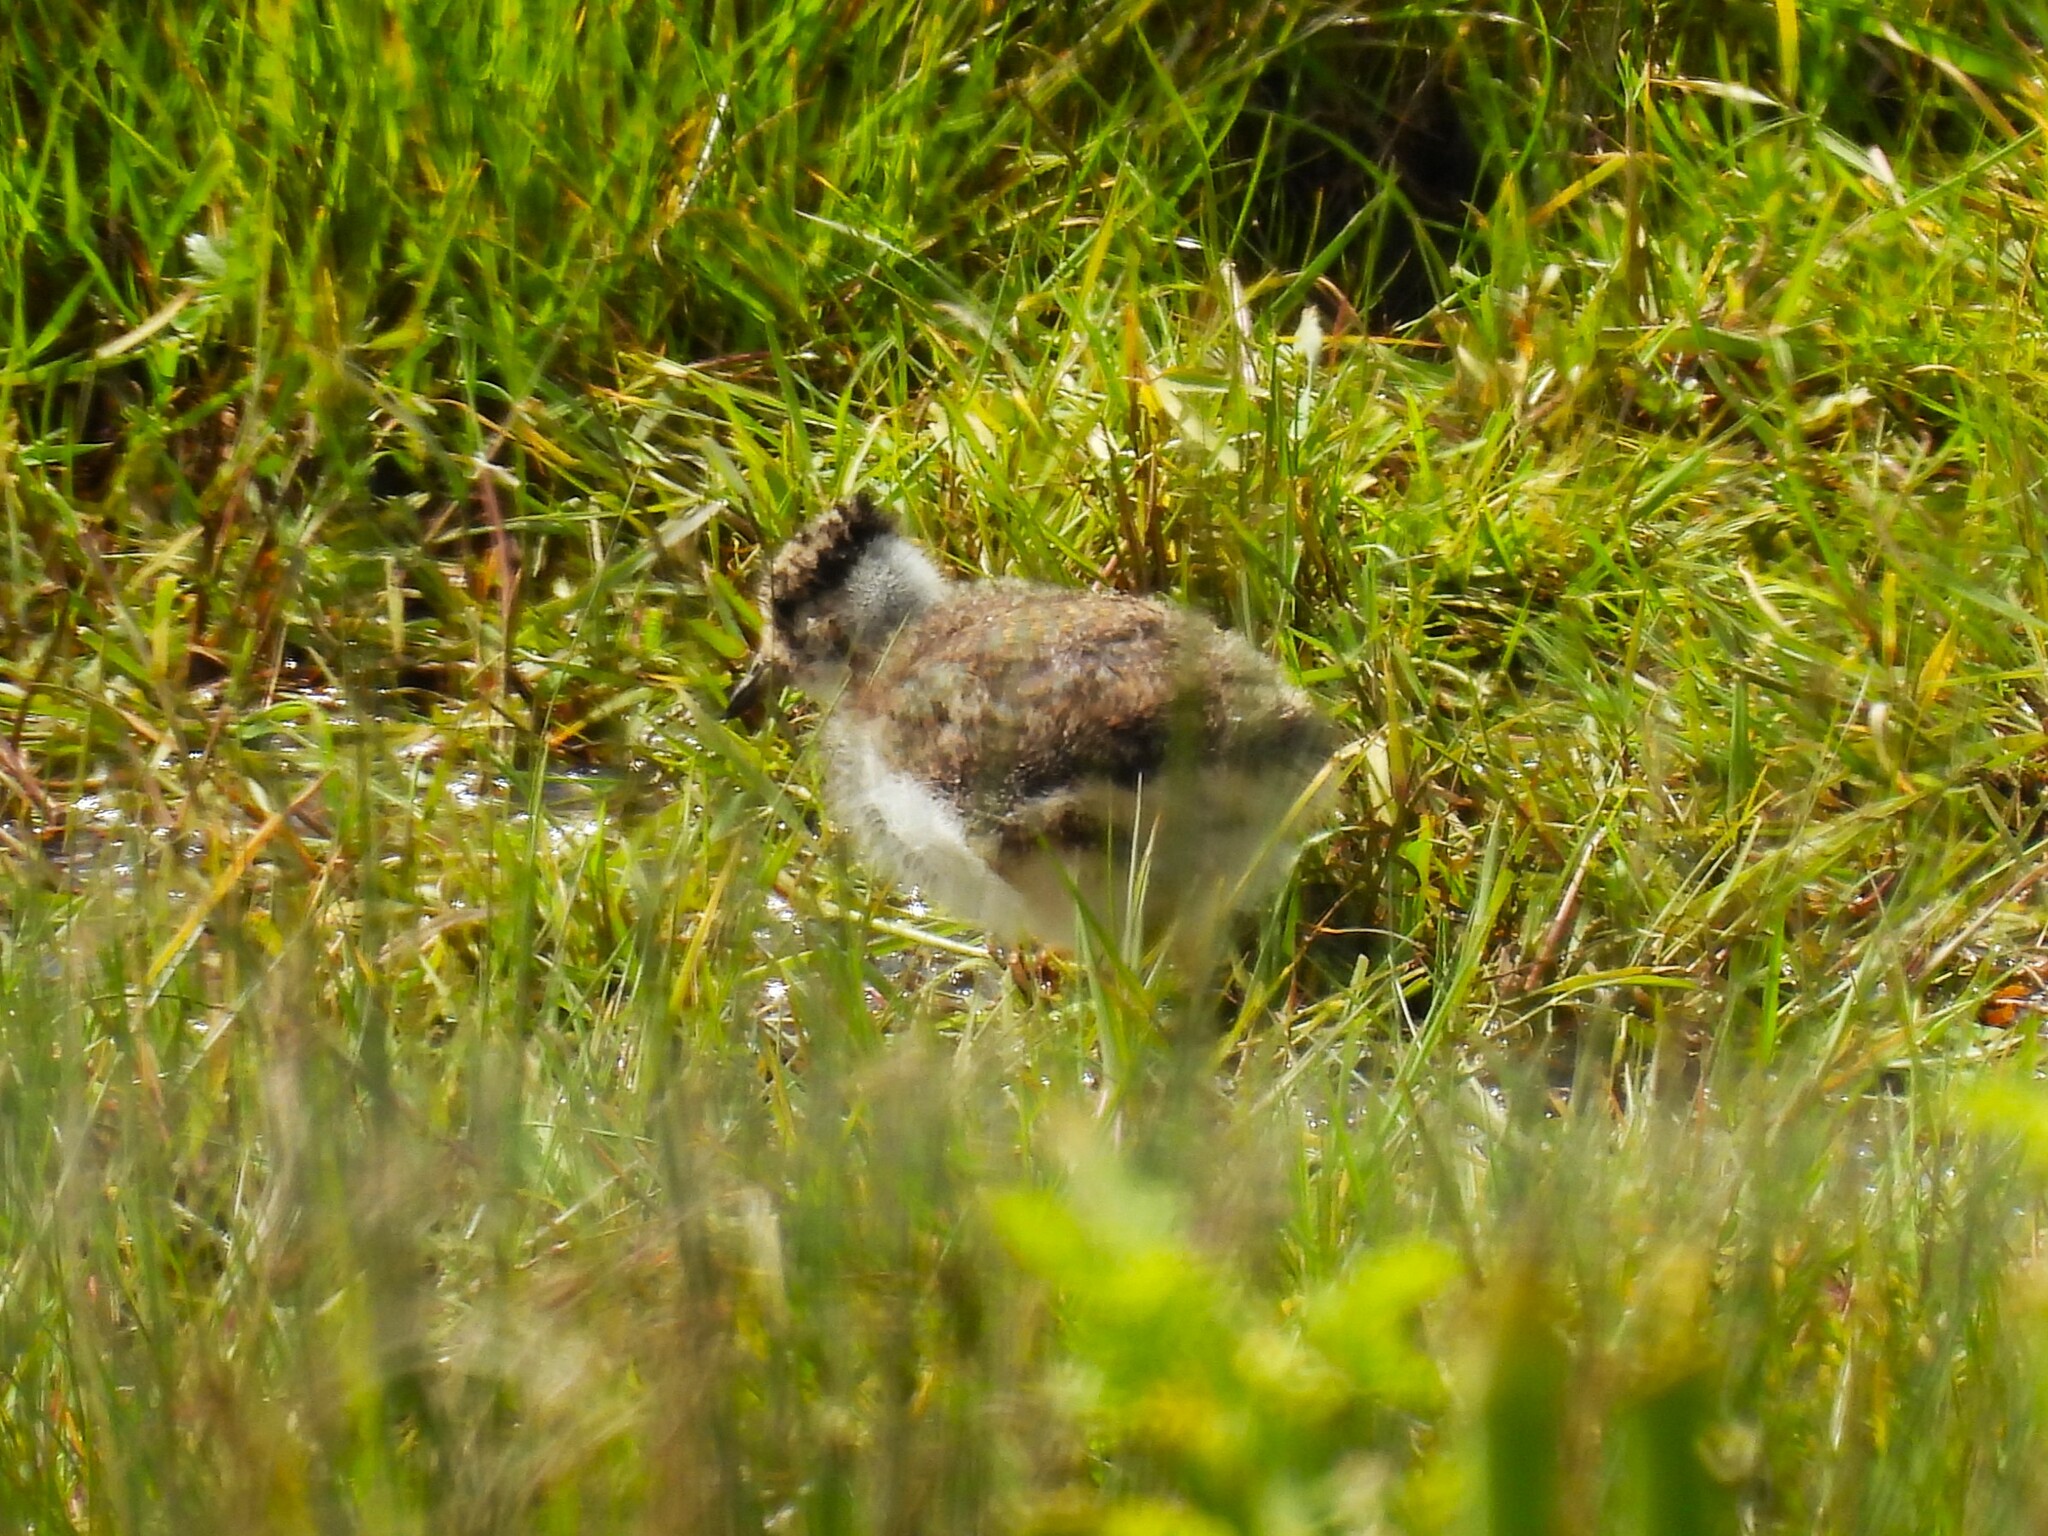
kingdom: Animalia
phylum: Chordata
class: Aves
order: Charadriiformes
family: Charadriidae
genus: Vanellus
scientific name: Vanellus vanellus
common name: Northern lapwing
